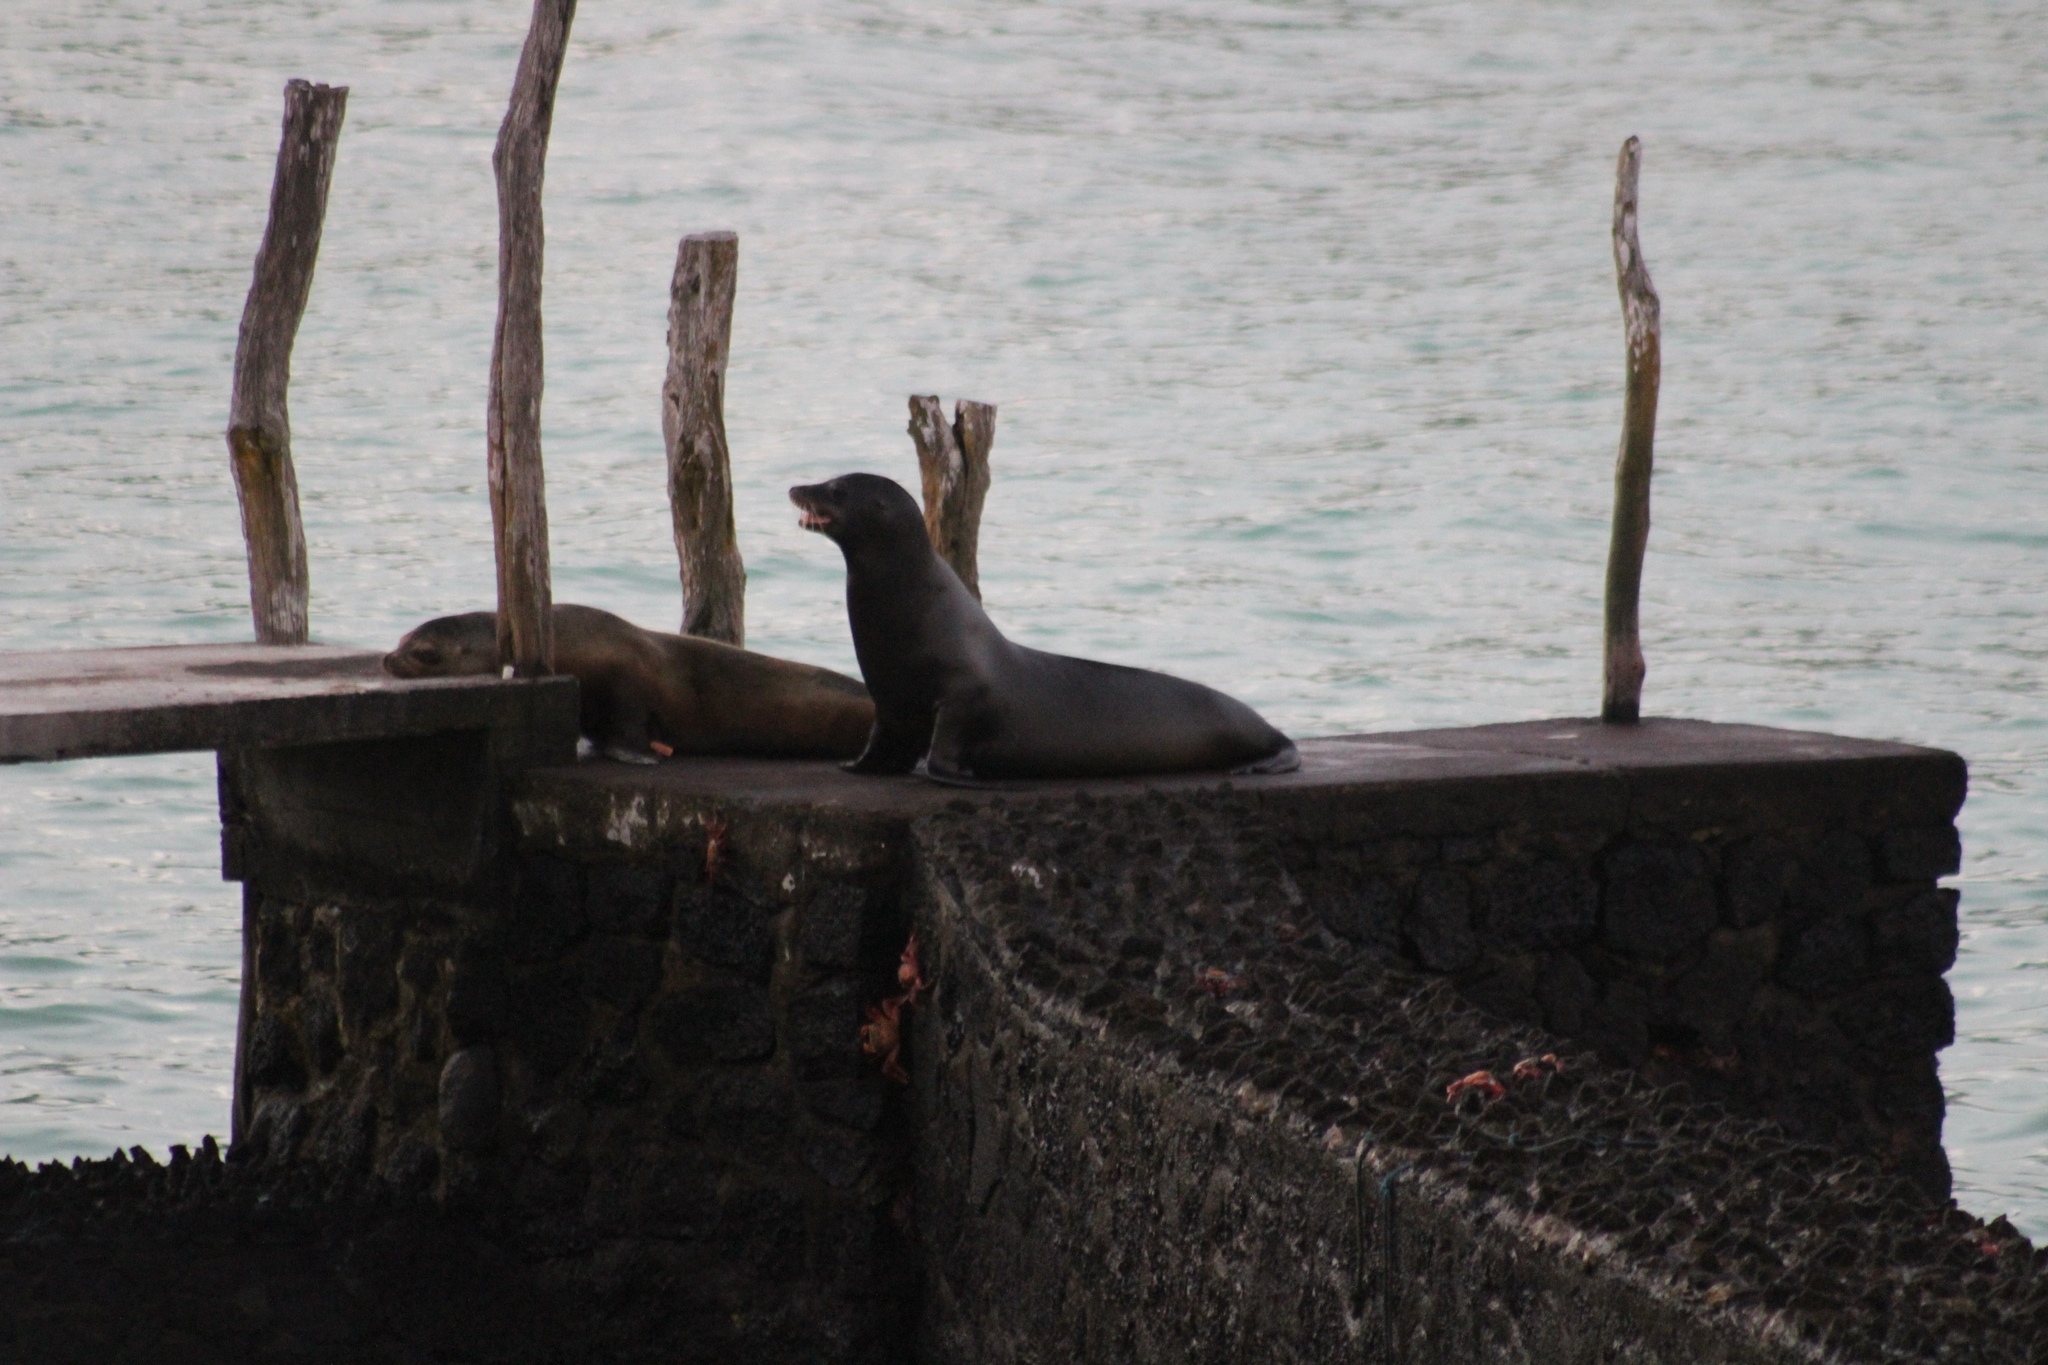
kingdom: Animalia
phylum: Chordata
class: Mammalia
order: Carnivora
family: Otariidae
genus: Zalophus
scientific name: Zalophus wollebaeki
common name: Galapagos sea lion
